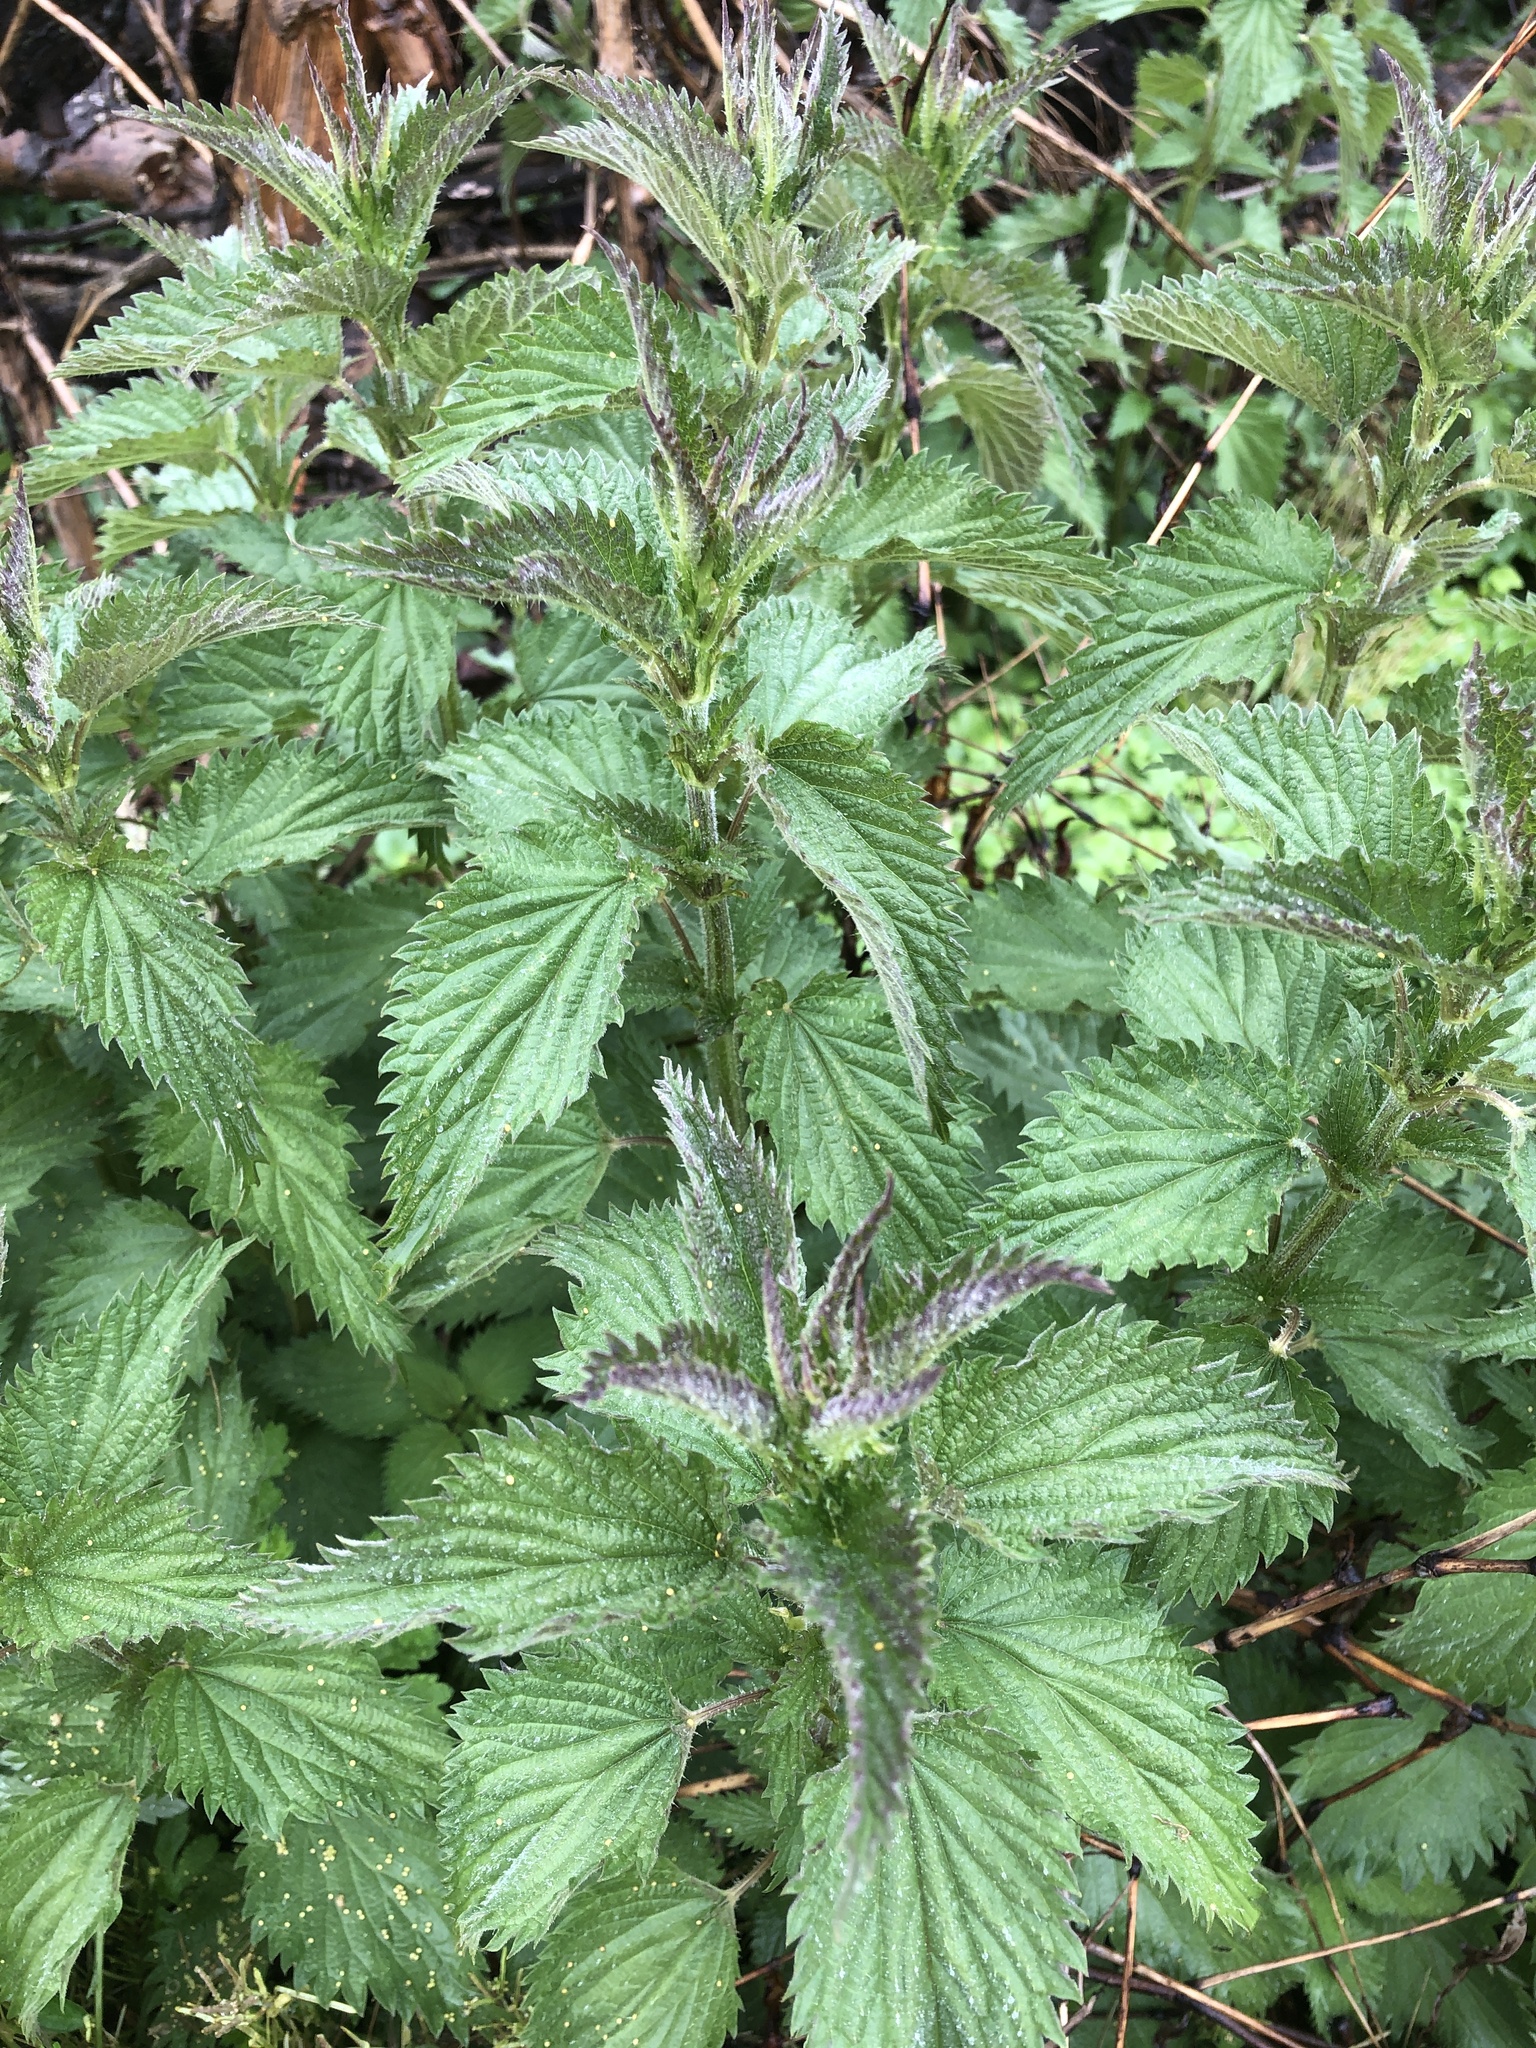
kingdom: Plantae
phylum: Tracheophyta
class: Magnoliopsida
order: Rosales
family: Urticaceae
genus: Urtica
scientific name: Urtica dioica
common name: Common nettle
